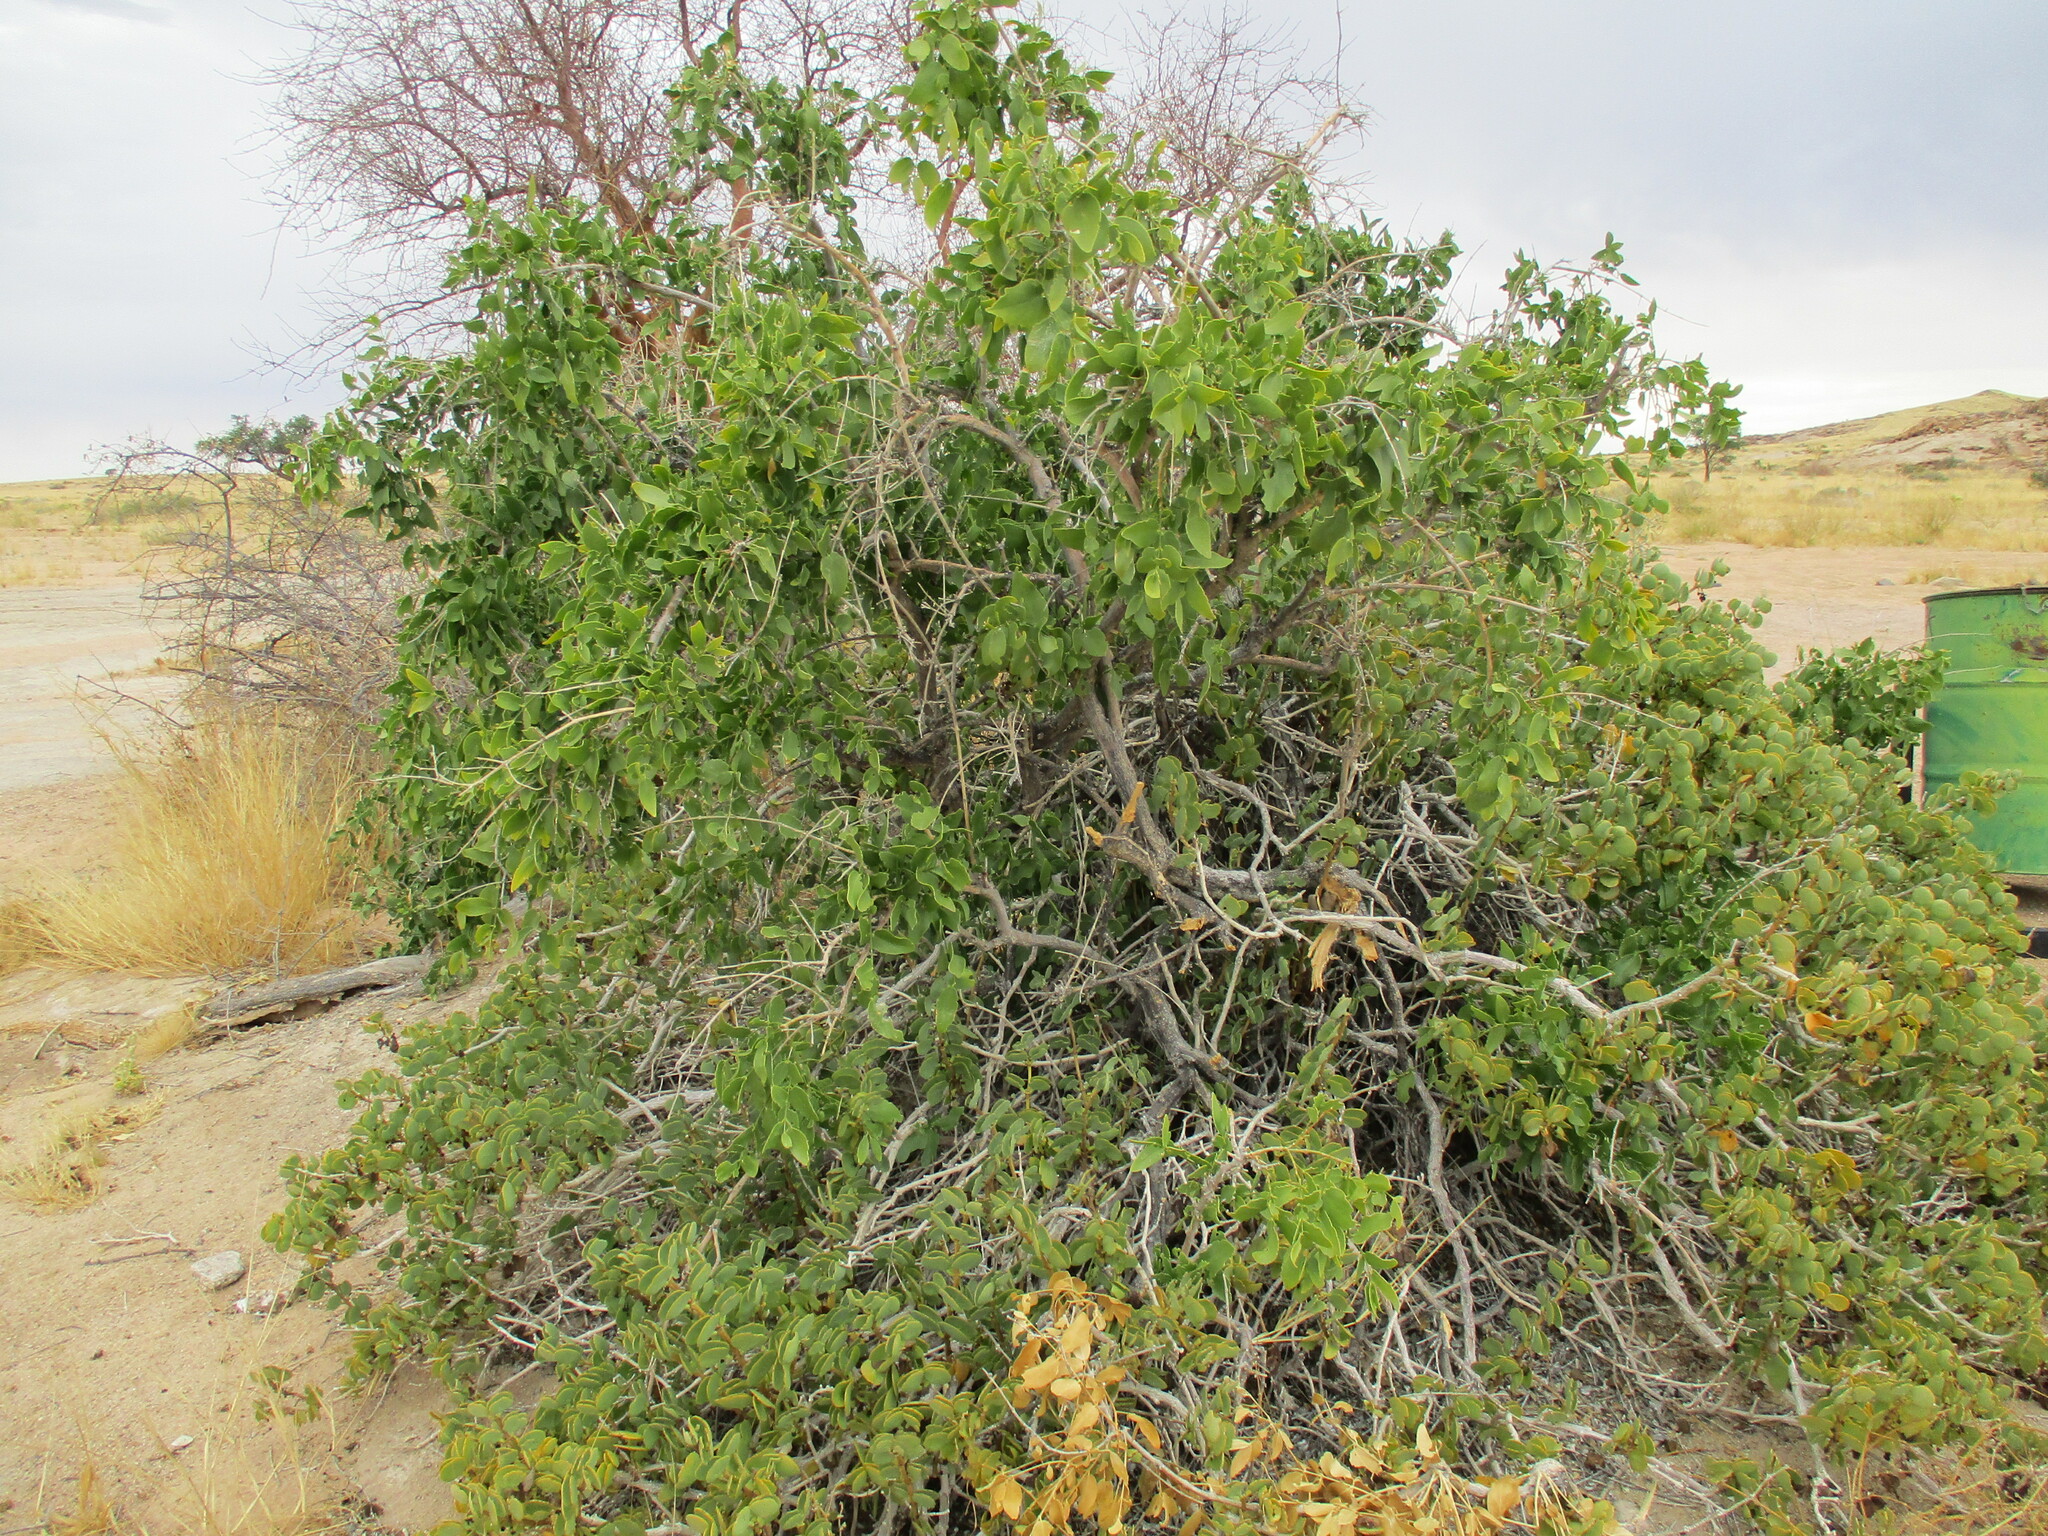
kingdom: Plantae
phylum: Tracheophyta
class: Magnoliopsida
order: Brassicales
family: Salvadoraceae
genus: Salvadora
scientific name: Salvadora persica
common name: Toothbrushtree
